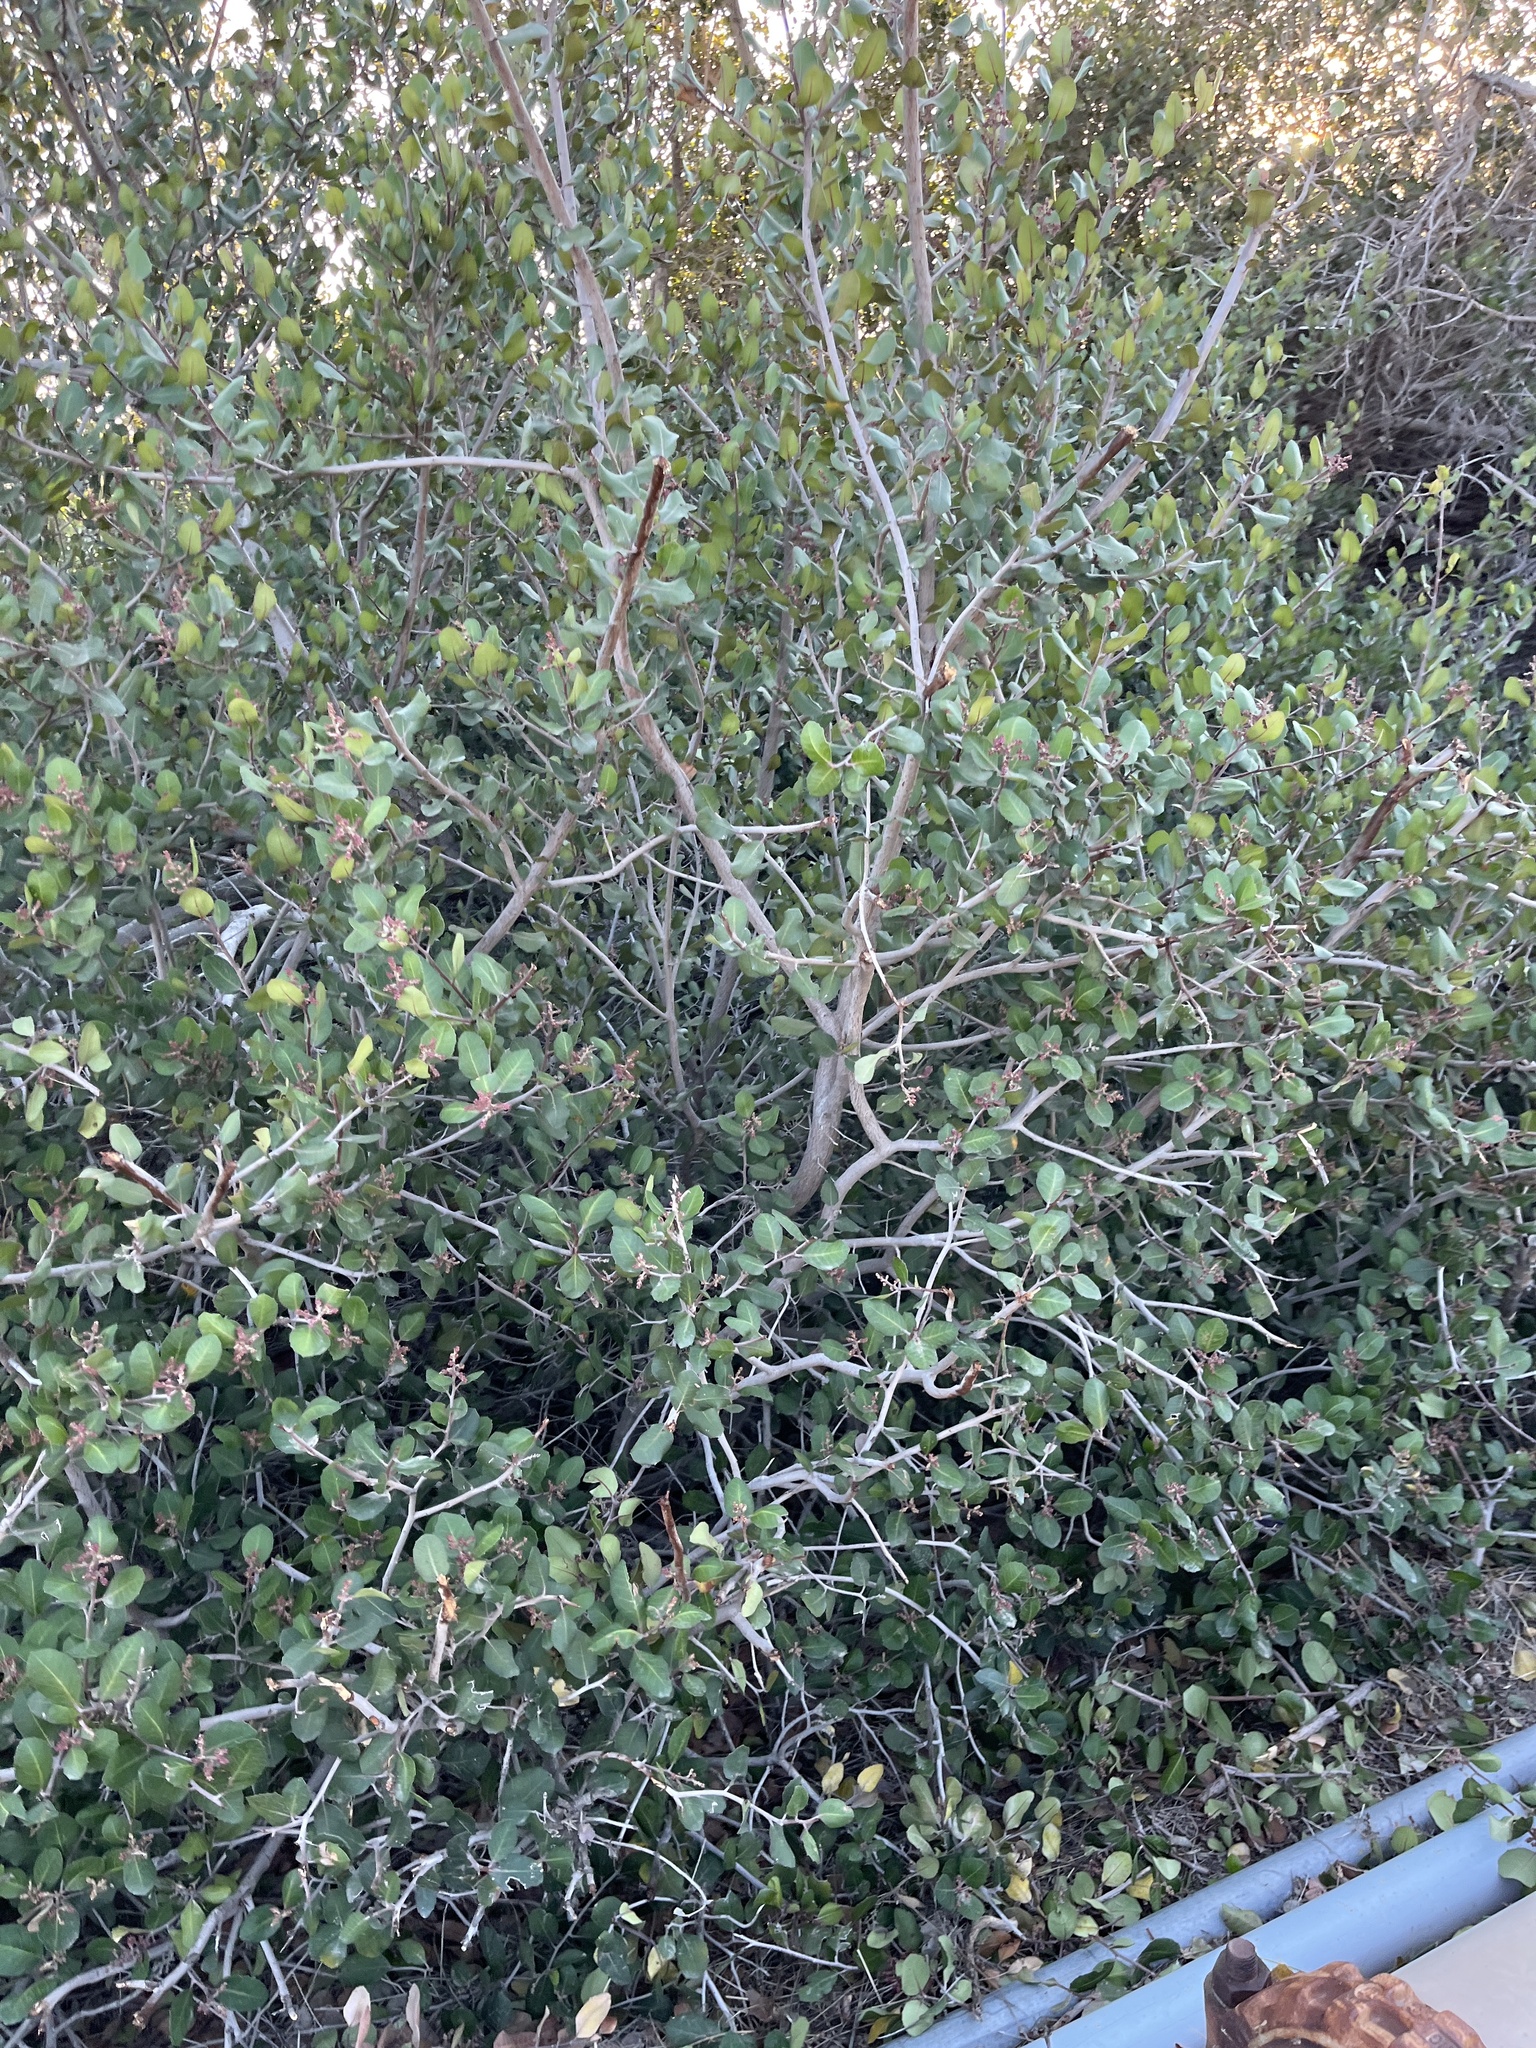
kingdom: Plantae
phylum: Tracheophyta
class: Magnoliopsida
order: Sapindales
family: Anacardiaceae
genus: Rhus
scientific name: Rhus integrifolia
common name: Lemonade sumac
